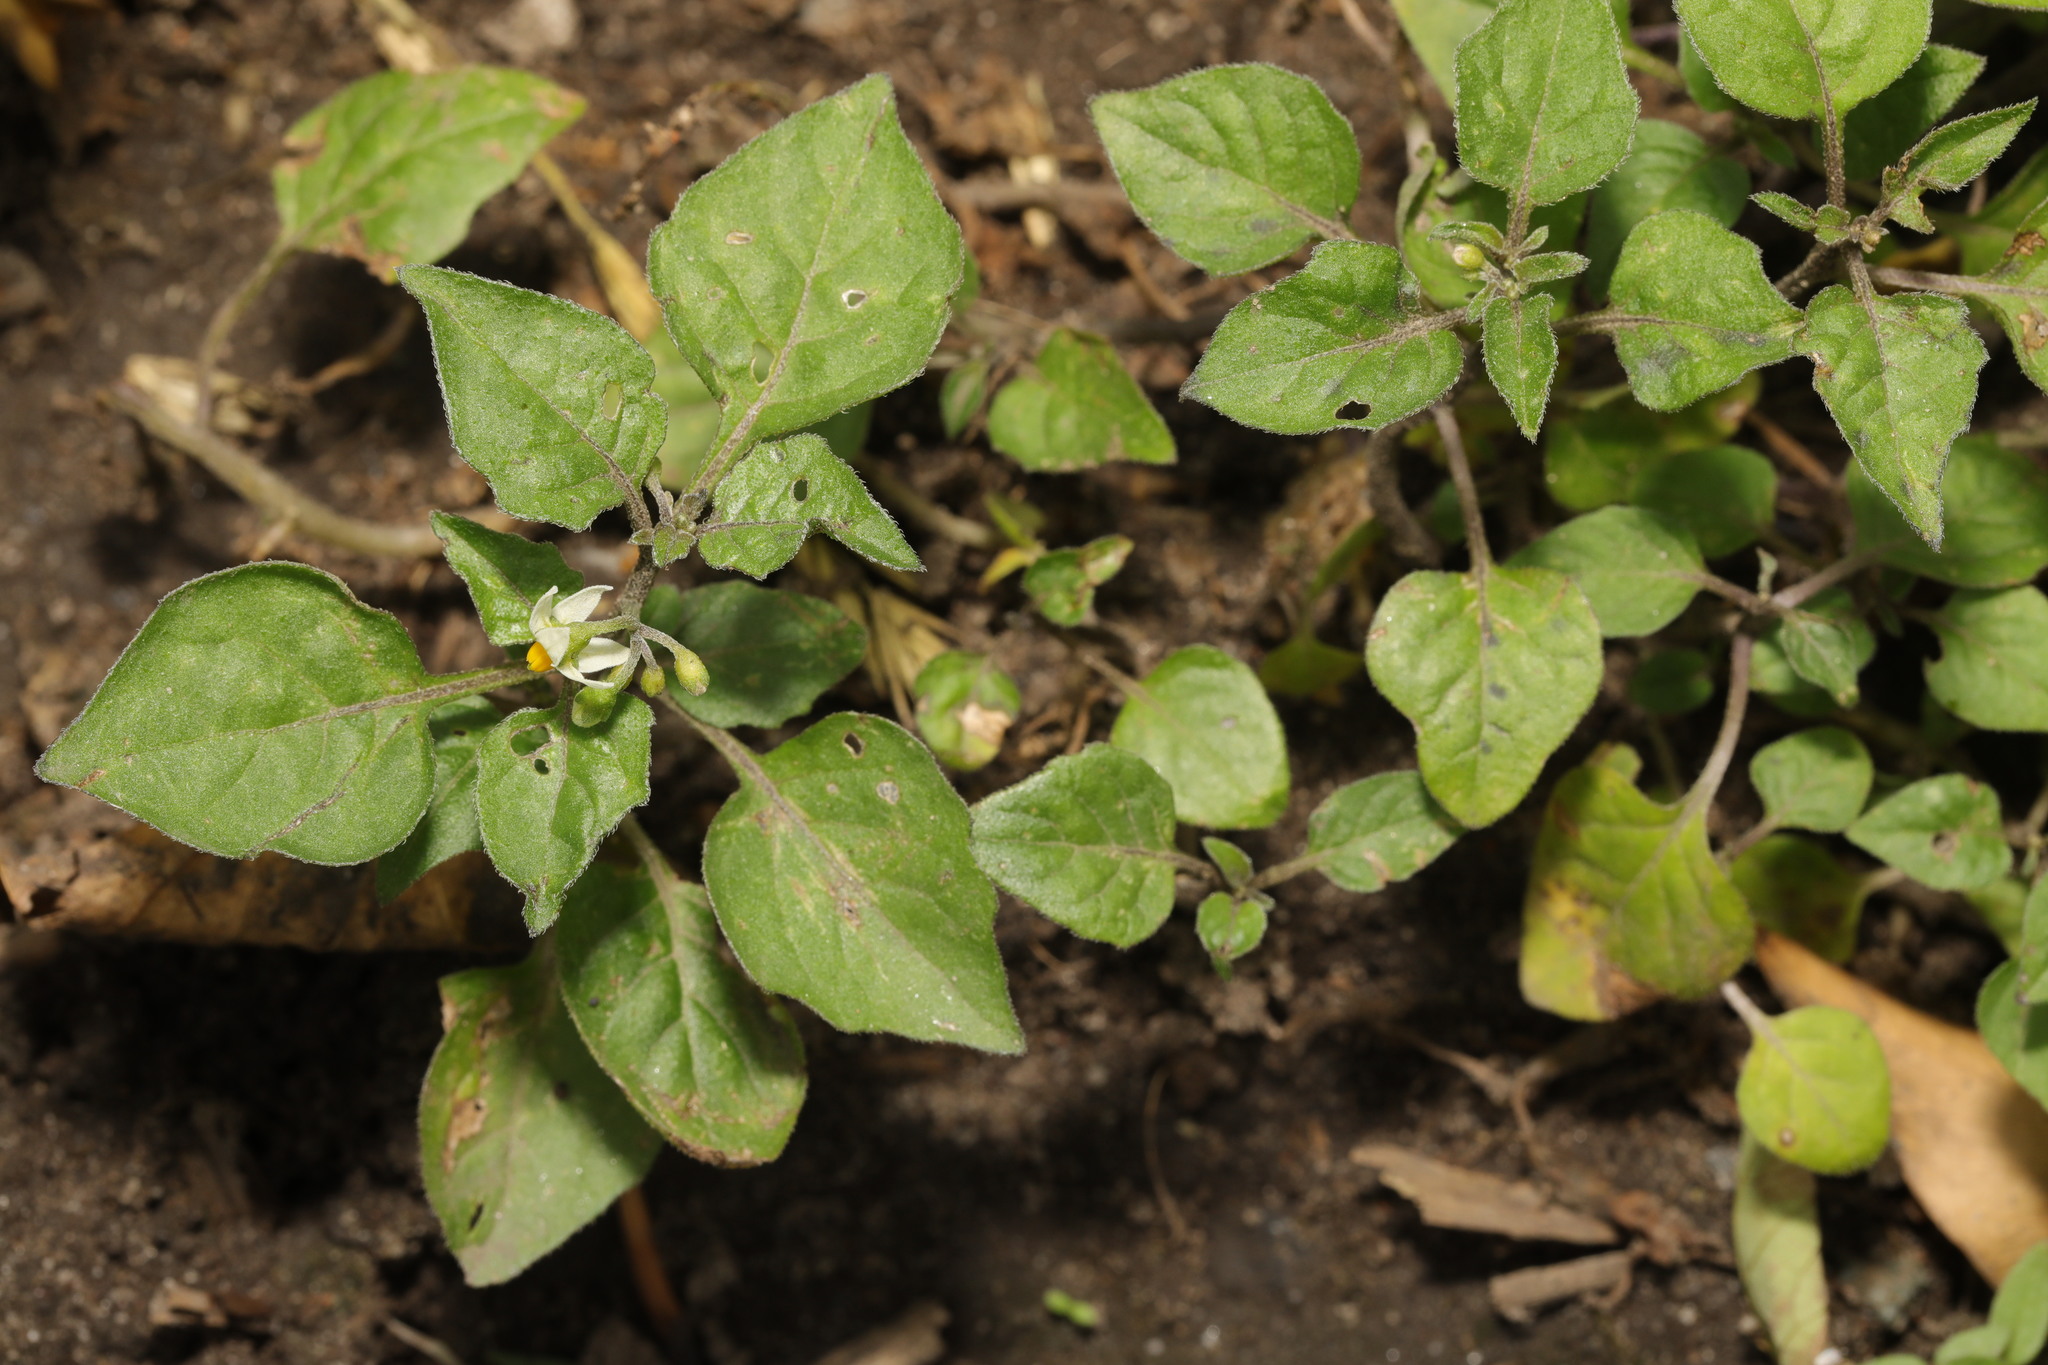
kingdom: Plantae
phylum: Tracheophyta
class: Magnoliopsida
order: Solanales
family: Solanaceae
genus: Solanum
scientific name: Solanum nigrum
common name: Black nightshade
